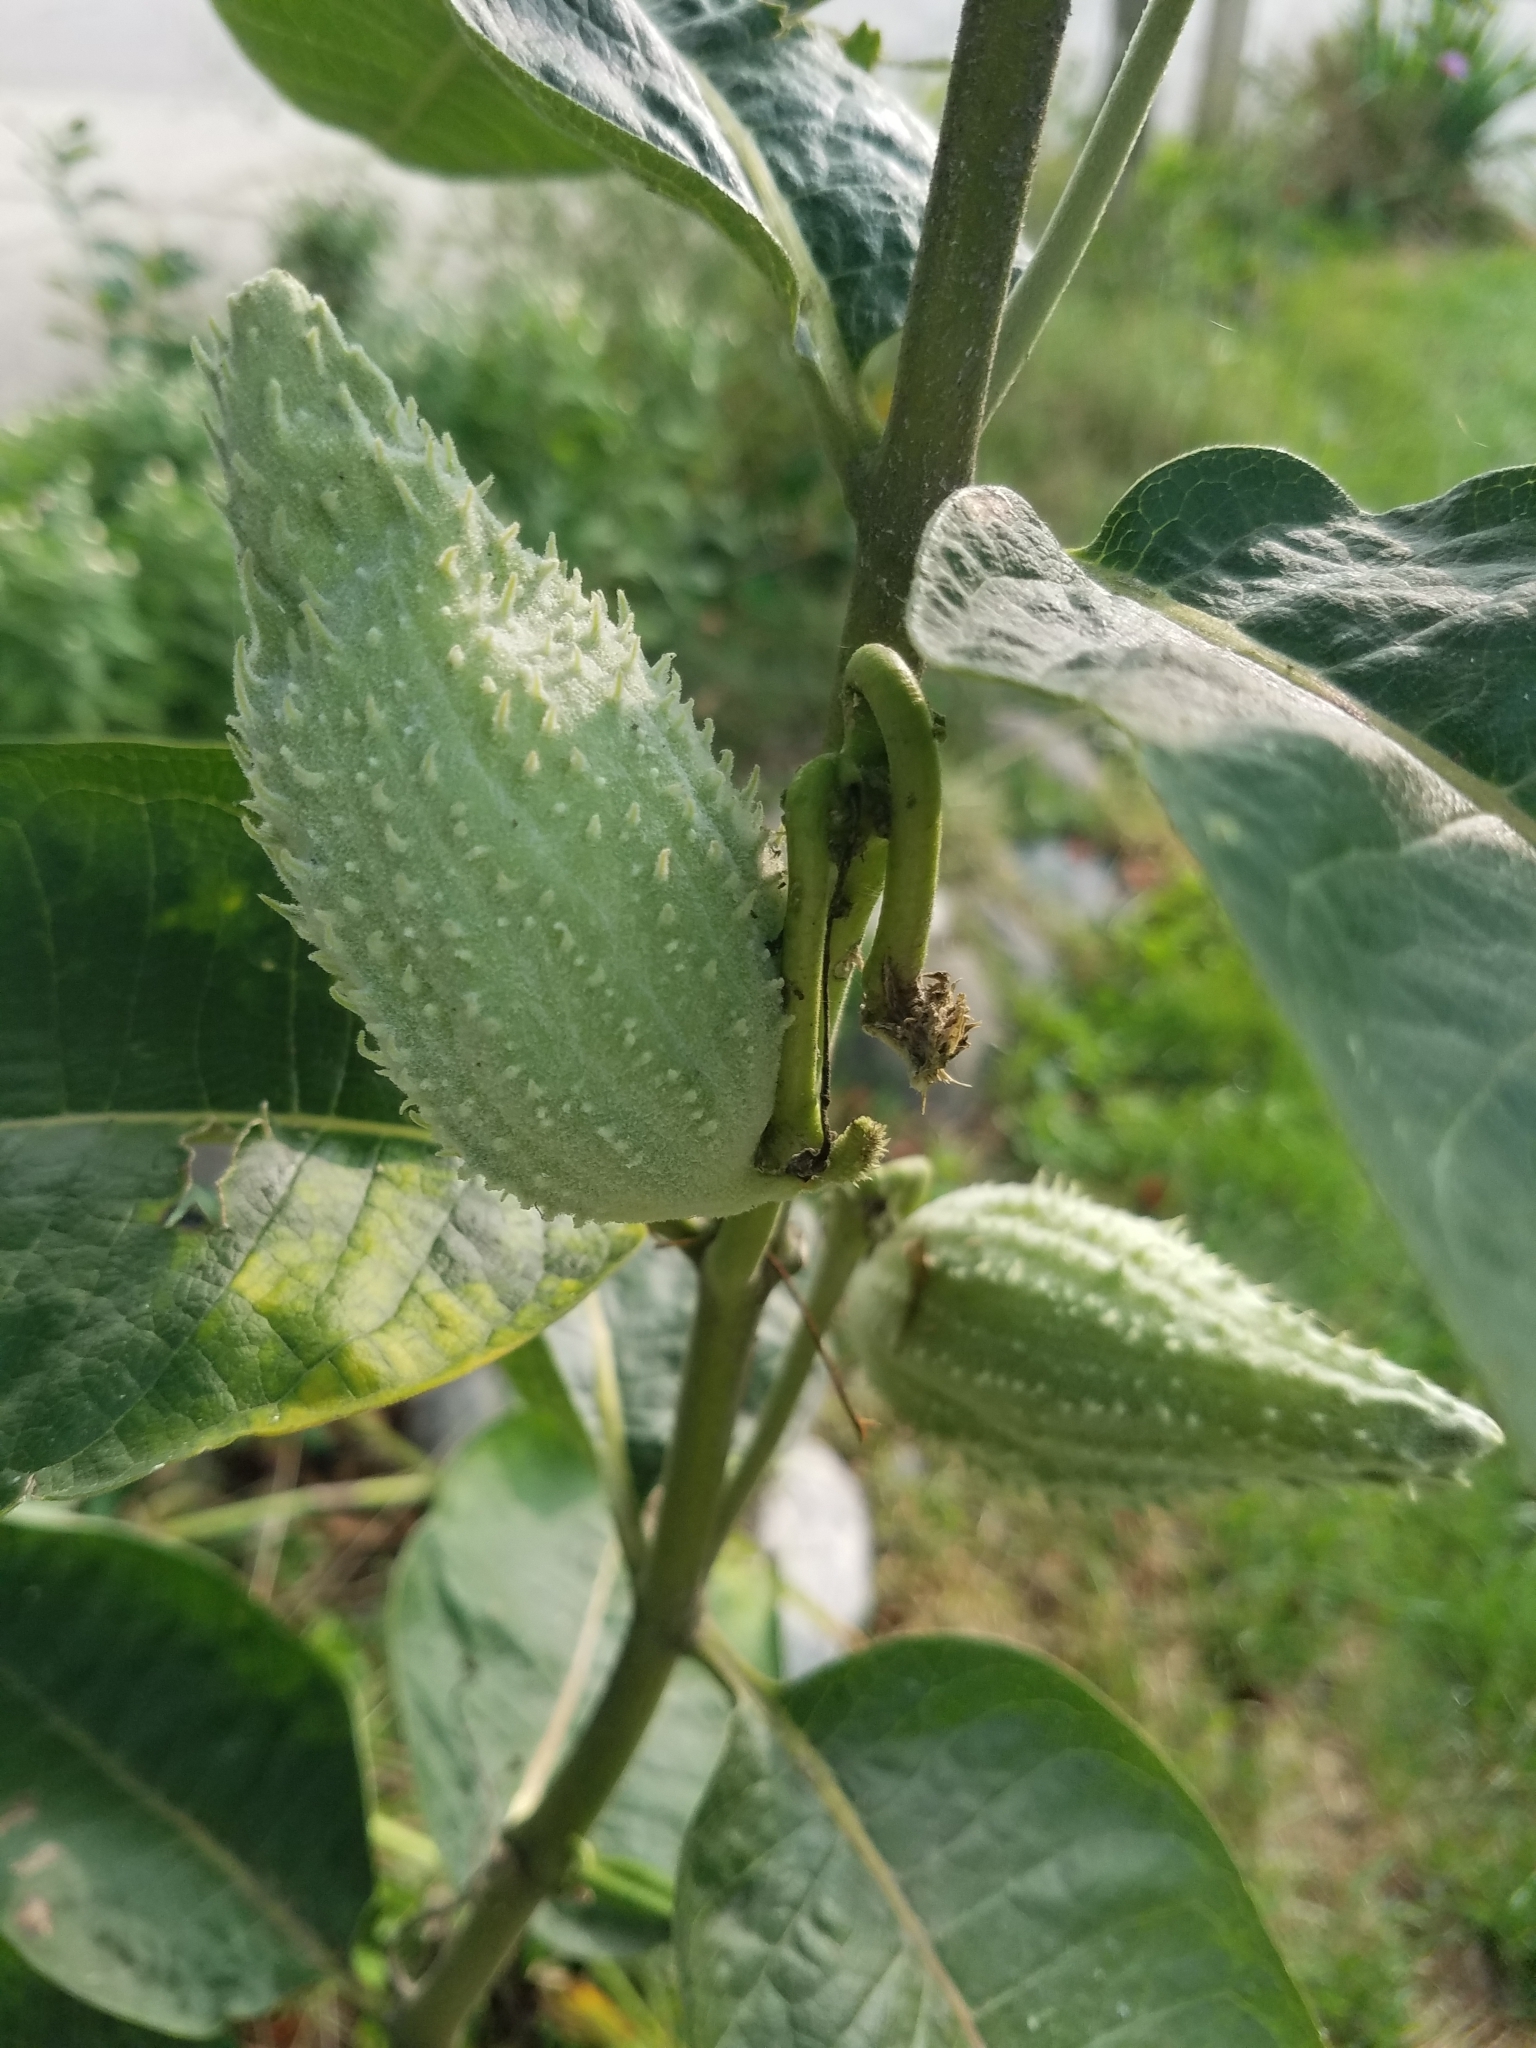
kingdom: Plantae
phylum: Tracheophyta
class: Magnoliopsida
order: Gentianales
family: Apocynaceae
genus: Asclepias
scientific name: Asclepias syriaca
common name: Common milkweed
